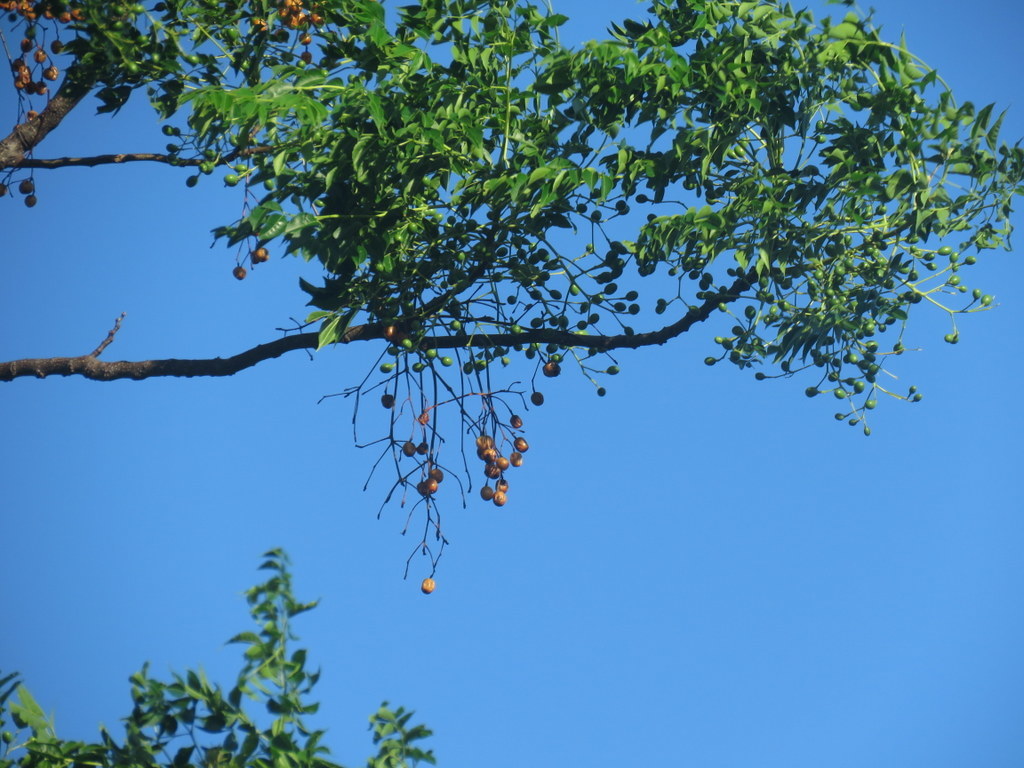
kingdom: Plantae
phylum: Tracheophyta
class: Magnoliopsida
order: Sapindales
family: Meliaceae
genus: Melia
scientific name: Melia azedarach
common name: Chinaberrytree
